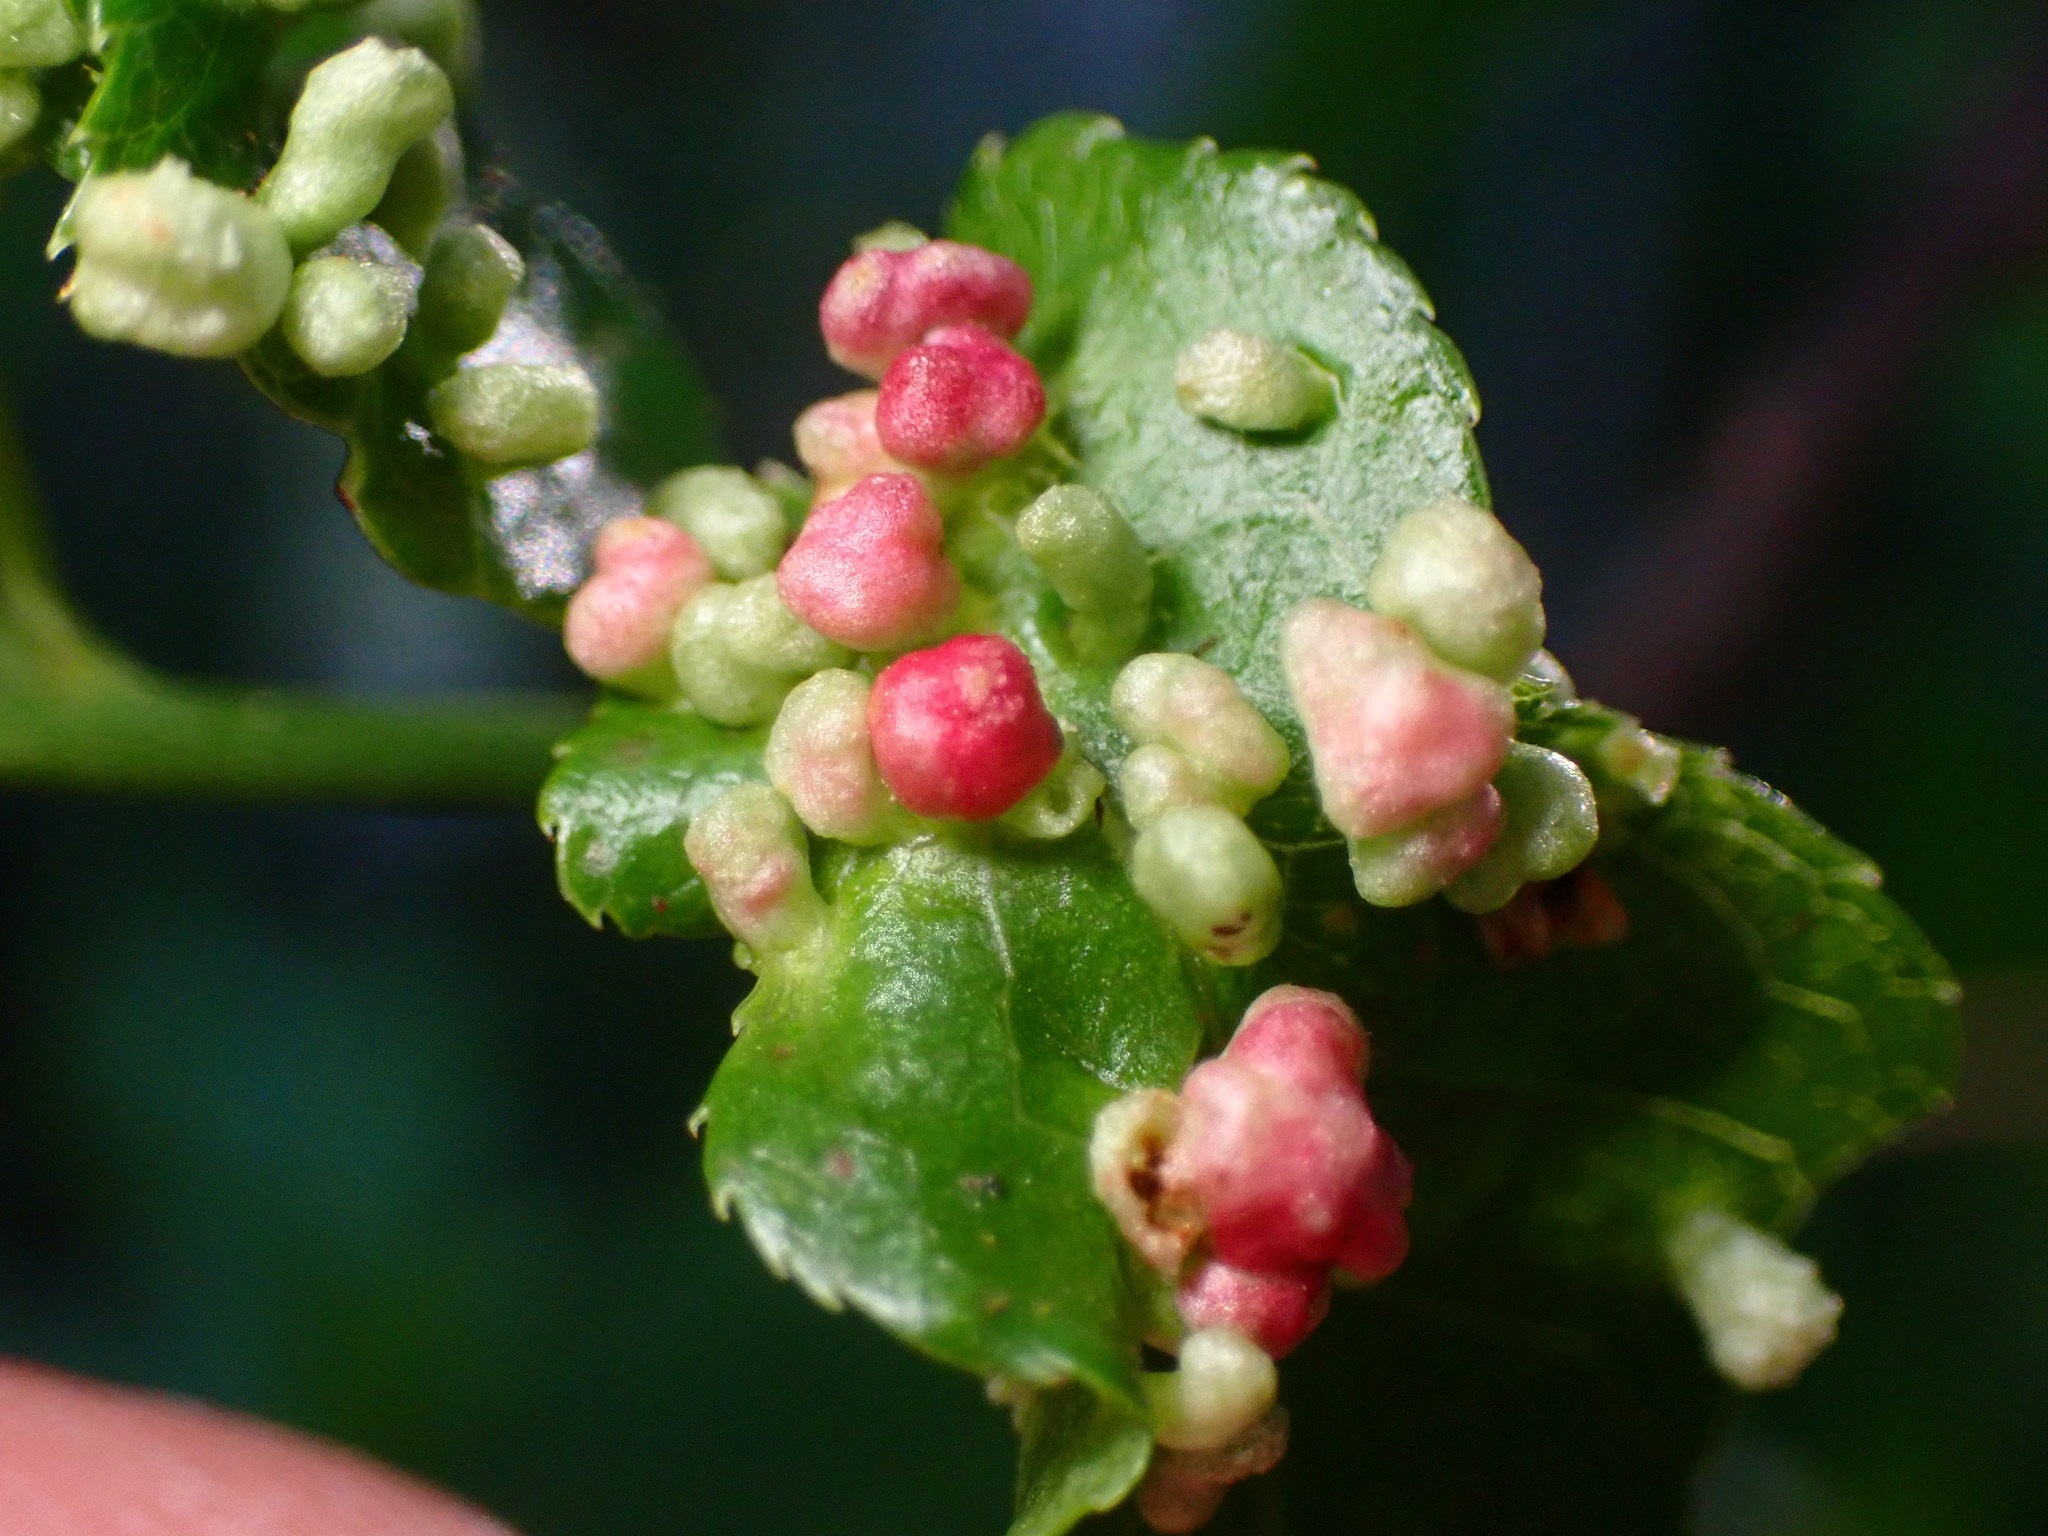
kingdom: Animalia
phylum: Arthropoda
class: Arachnida
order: Trombidiformes
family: Eriophyidae
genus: Eriophyes
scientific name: Eriophyes emarginatae
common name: Plum leaf gall mite
